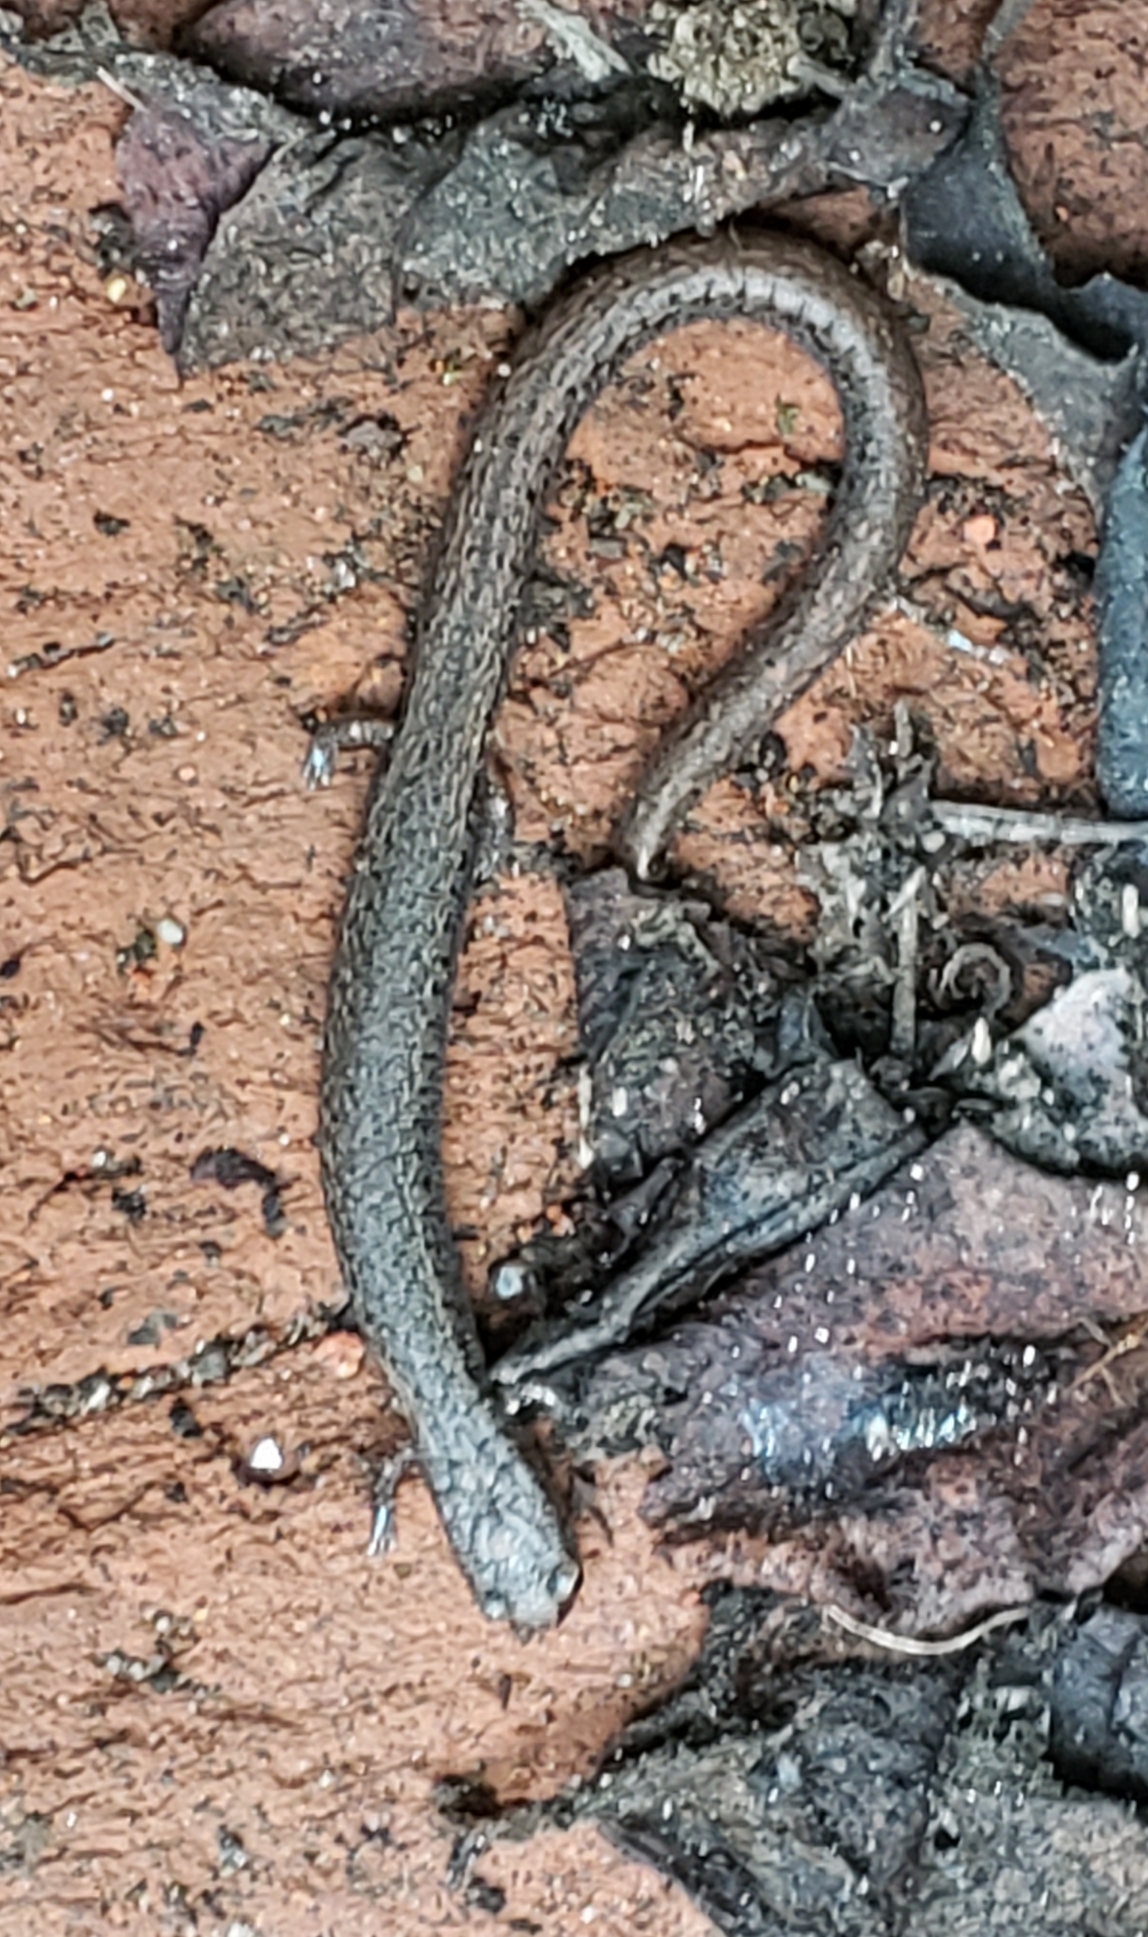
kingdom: Animalia
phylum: Chordata
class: Amphibia
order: Caudata
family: Plethodontidae
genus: Batrachoseps
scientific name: Batrachoseps attenuatus
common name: California slender salamander
